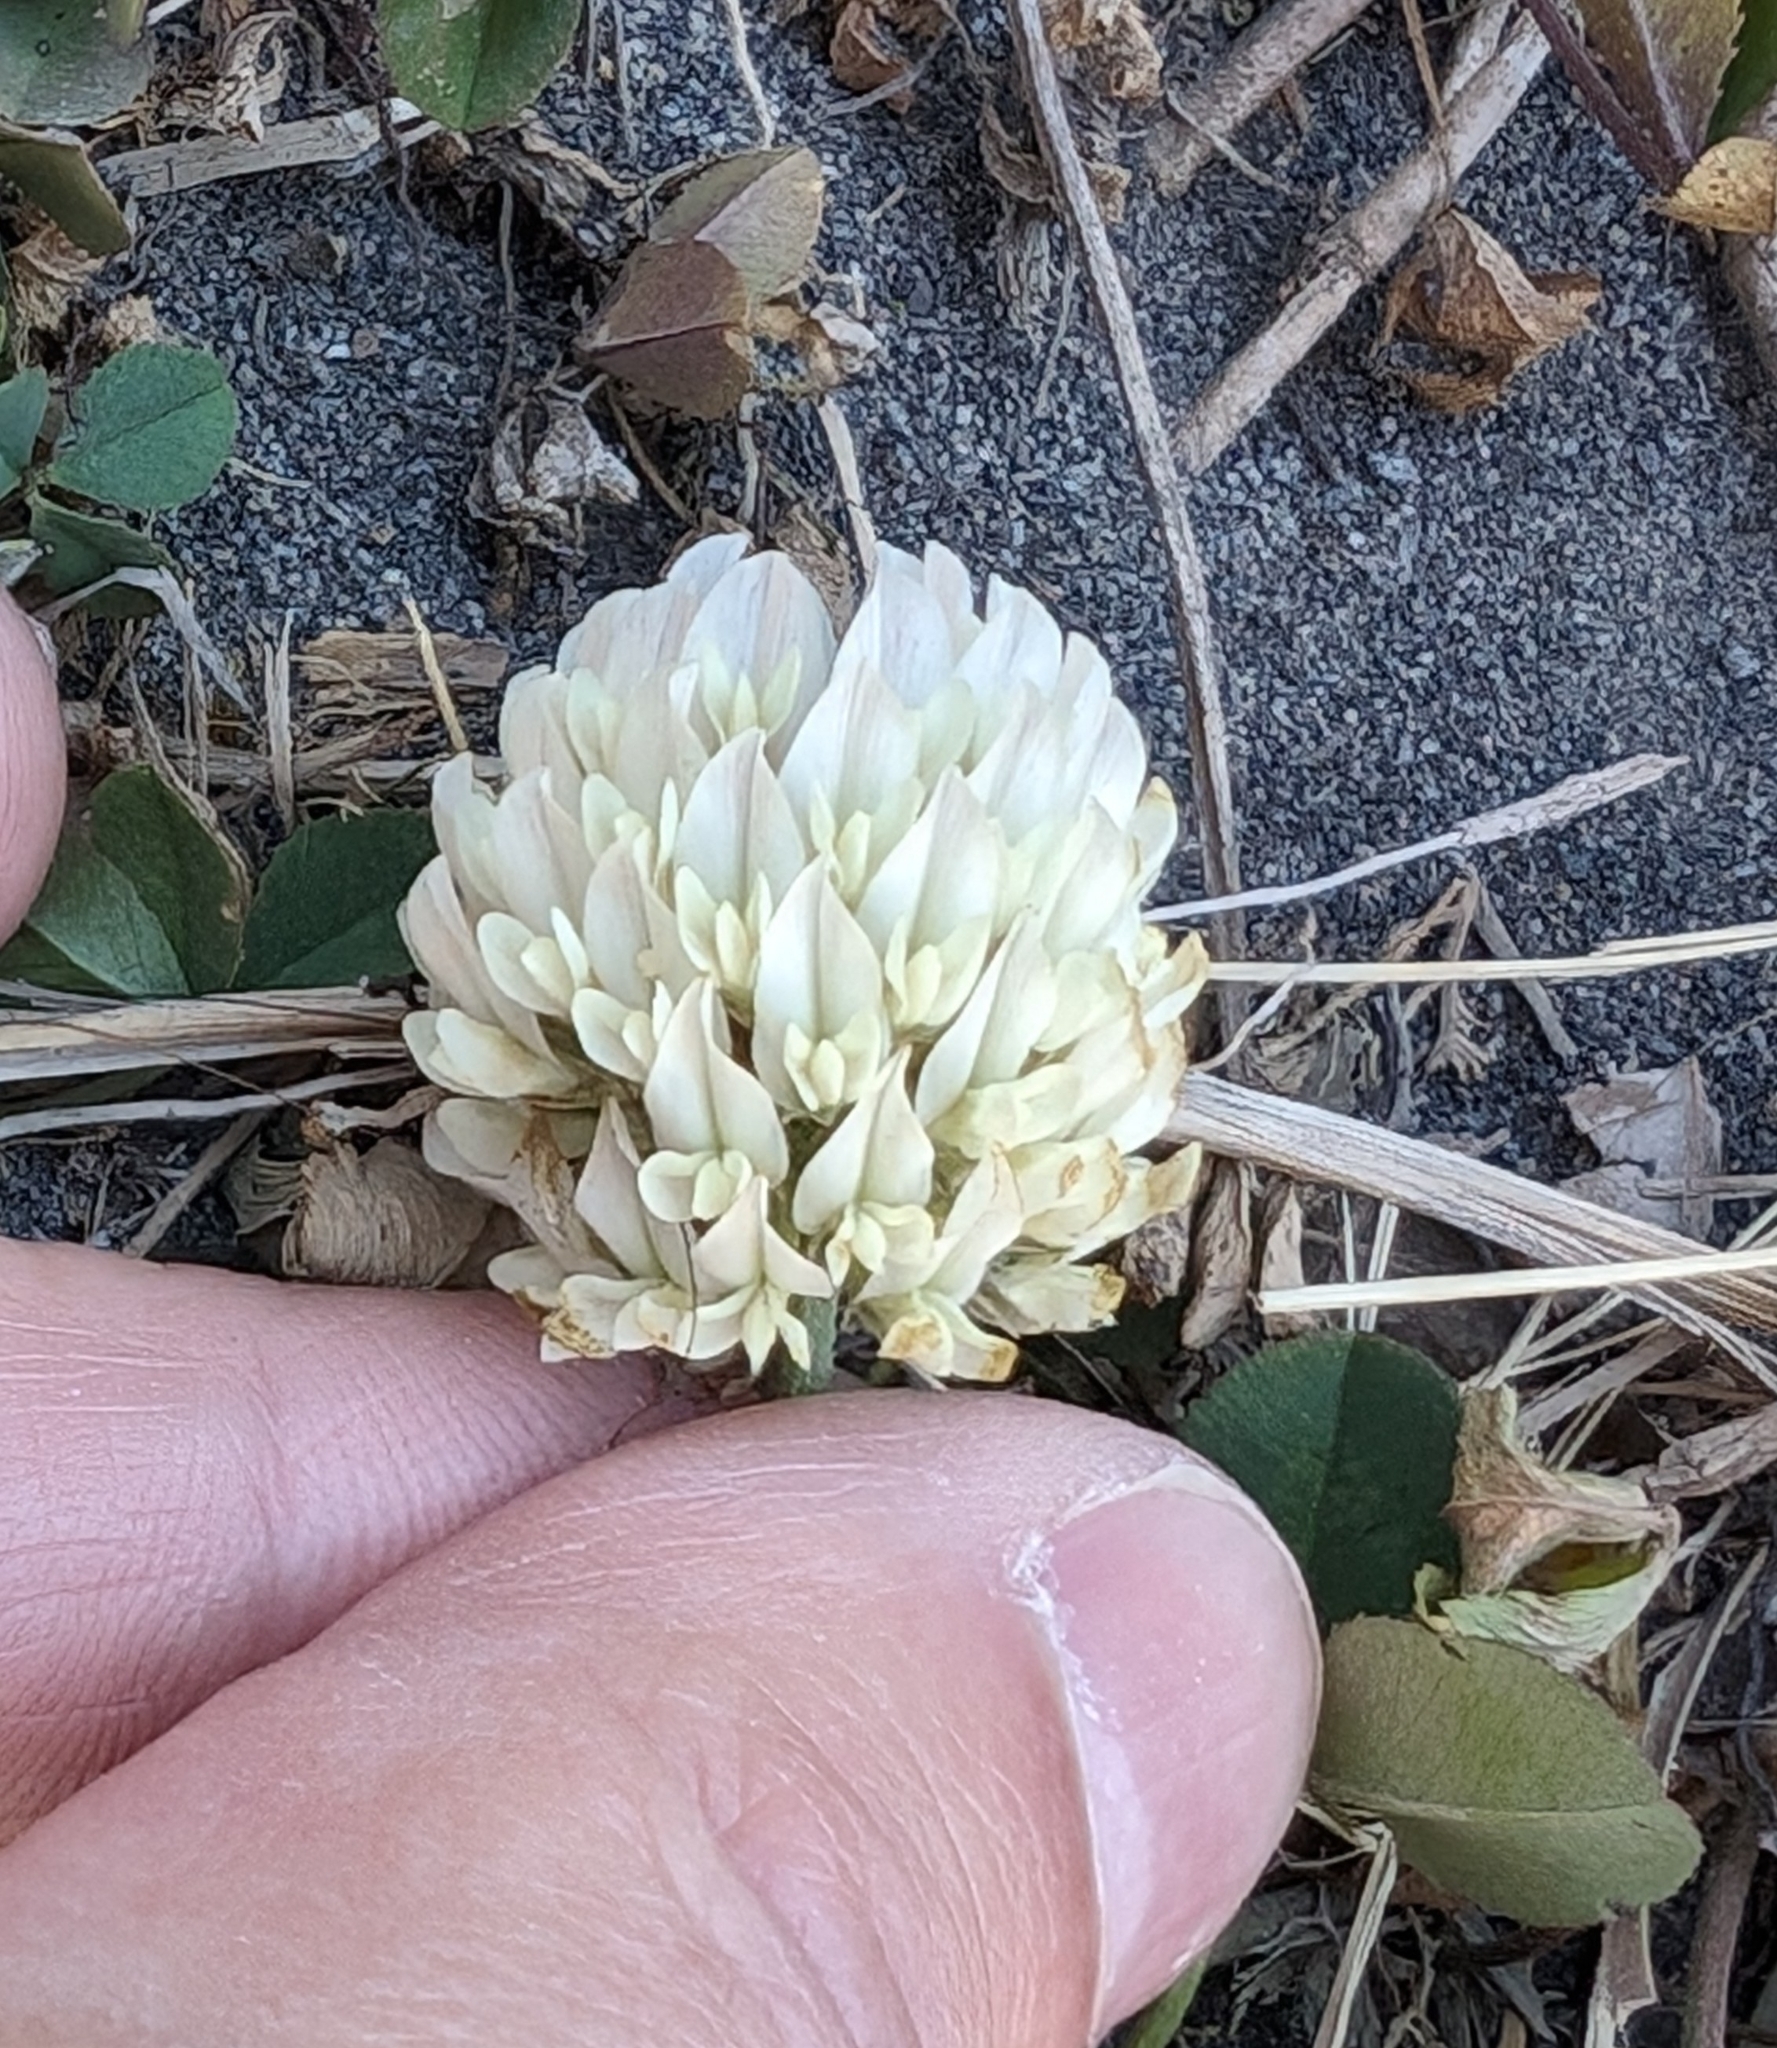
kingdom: Plantae
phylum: Tracheophyta
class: Magnoliopsida
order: Fabales
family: Fabaceae
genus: Trifolium
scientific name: Trifolium repens
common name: White clover
